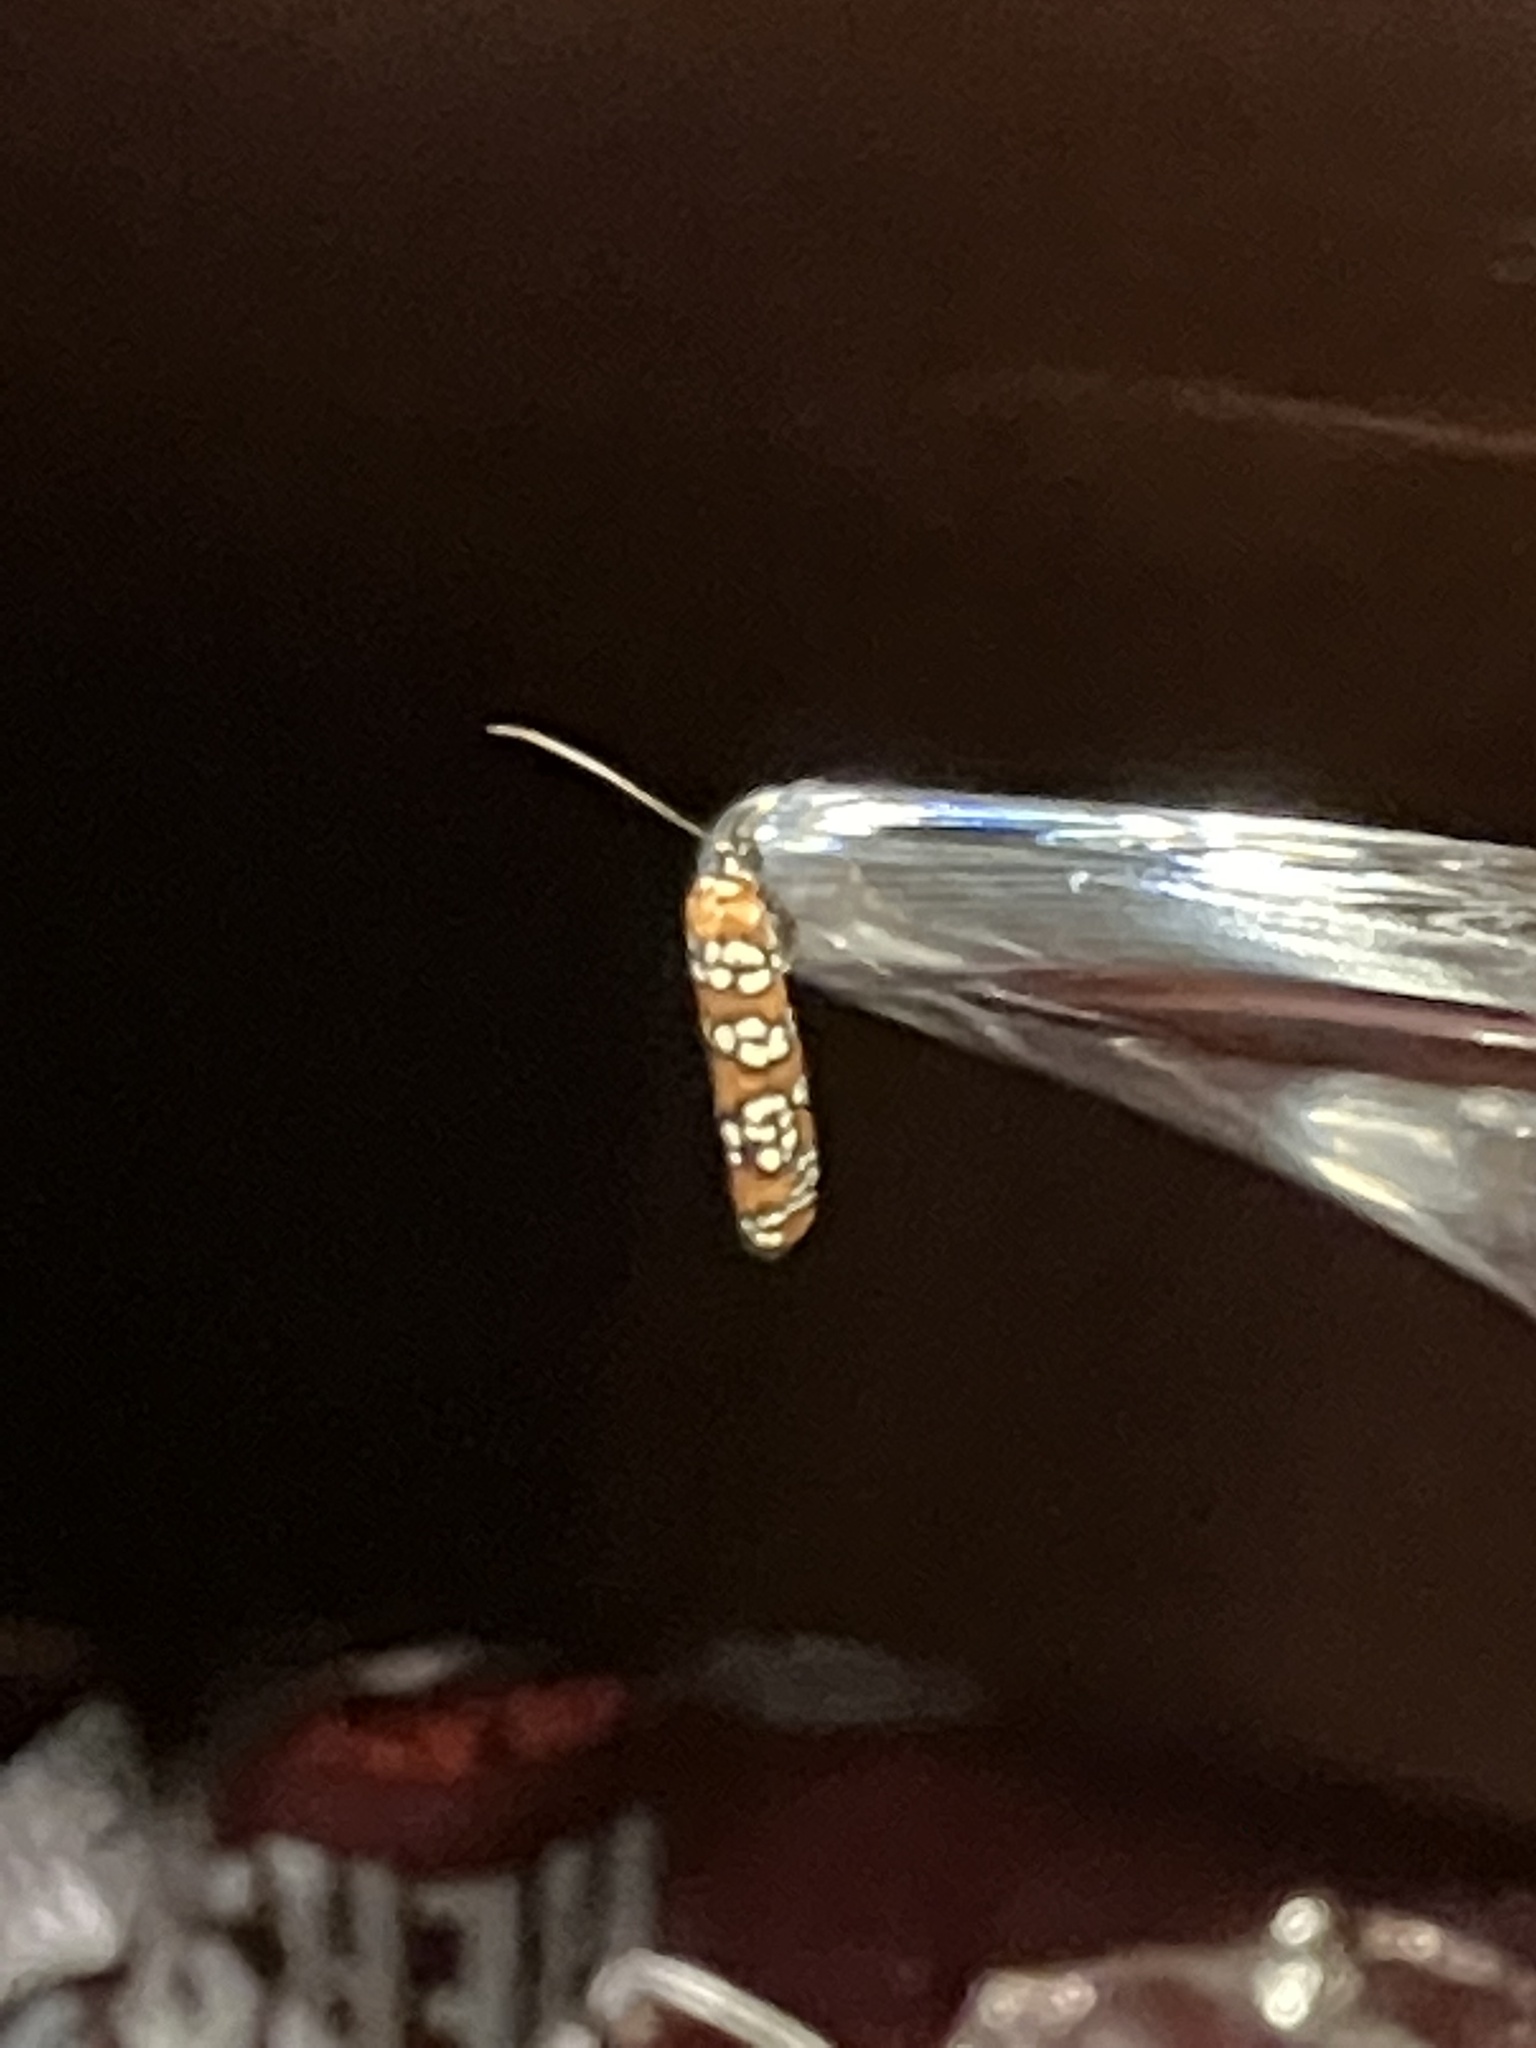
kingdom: Animalia
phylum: Arthropoda
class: Insecta
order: Lepidoptera
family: Attevidae
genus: Atteva
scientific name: Atteva punctella
